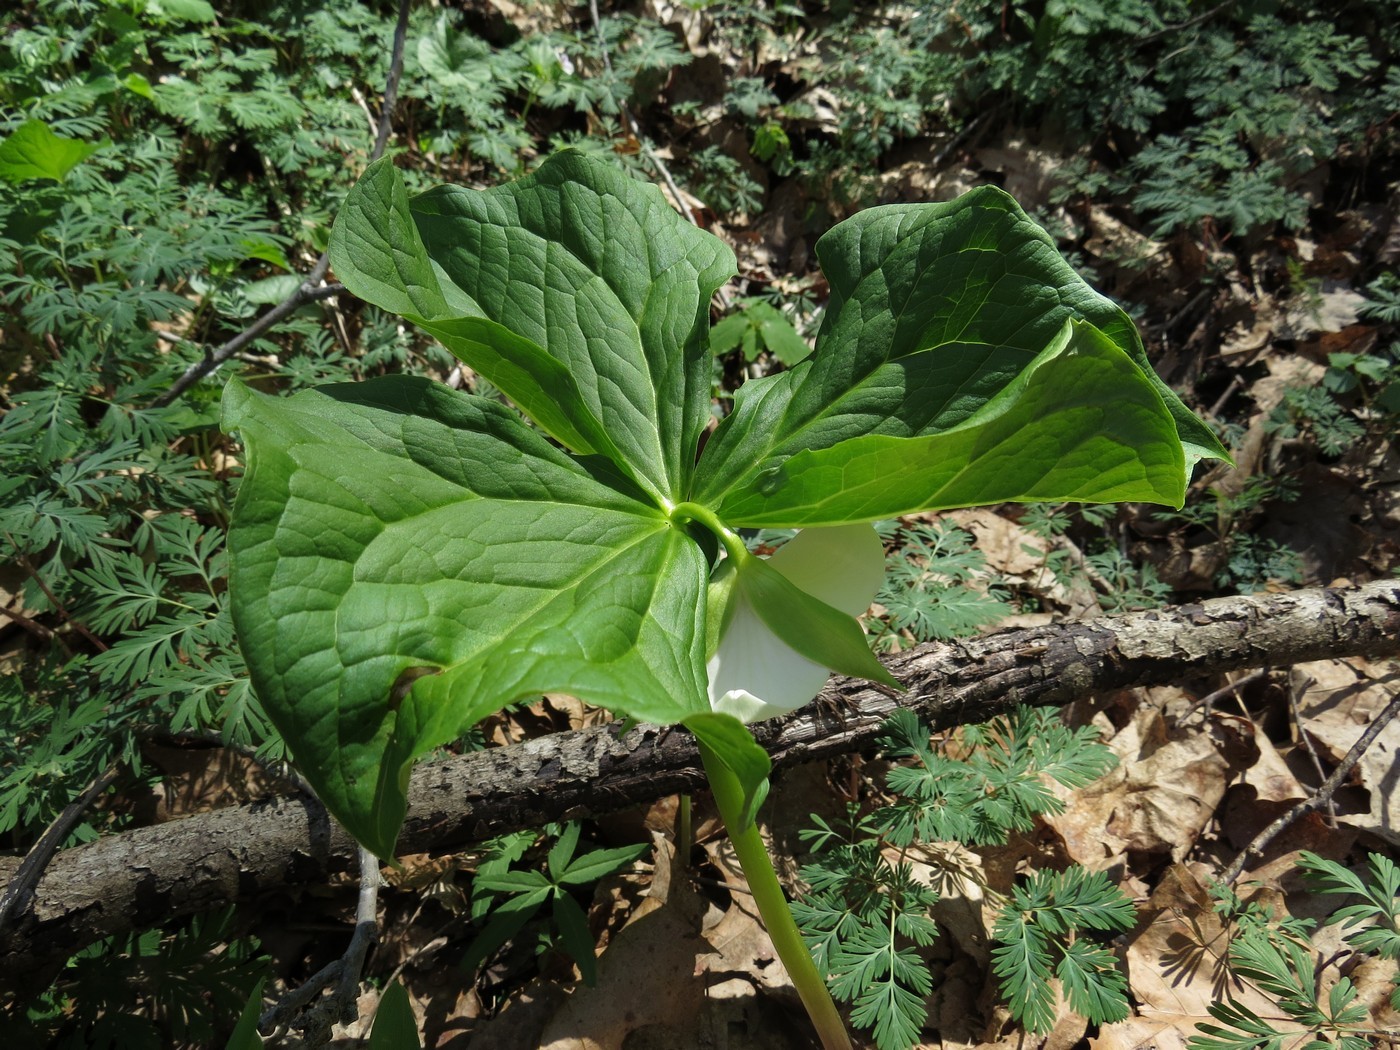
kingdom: Plantae
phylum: Tracheophyta
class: Liliopsida
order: Liliales
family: Melanthiaceae
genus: Trillium
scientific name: Trillium rugelii
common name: Ill-scented trillium
